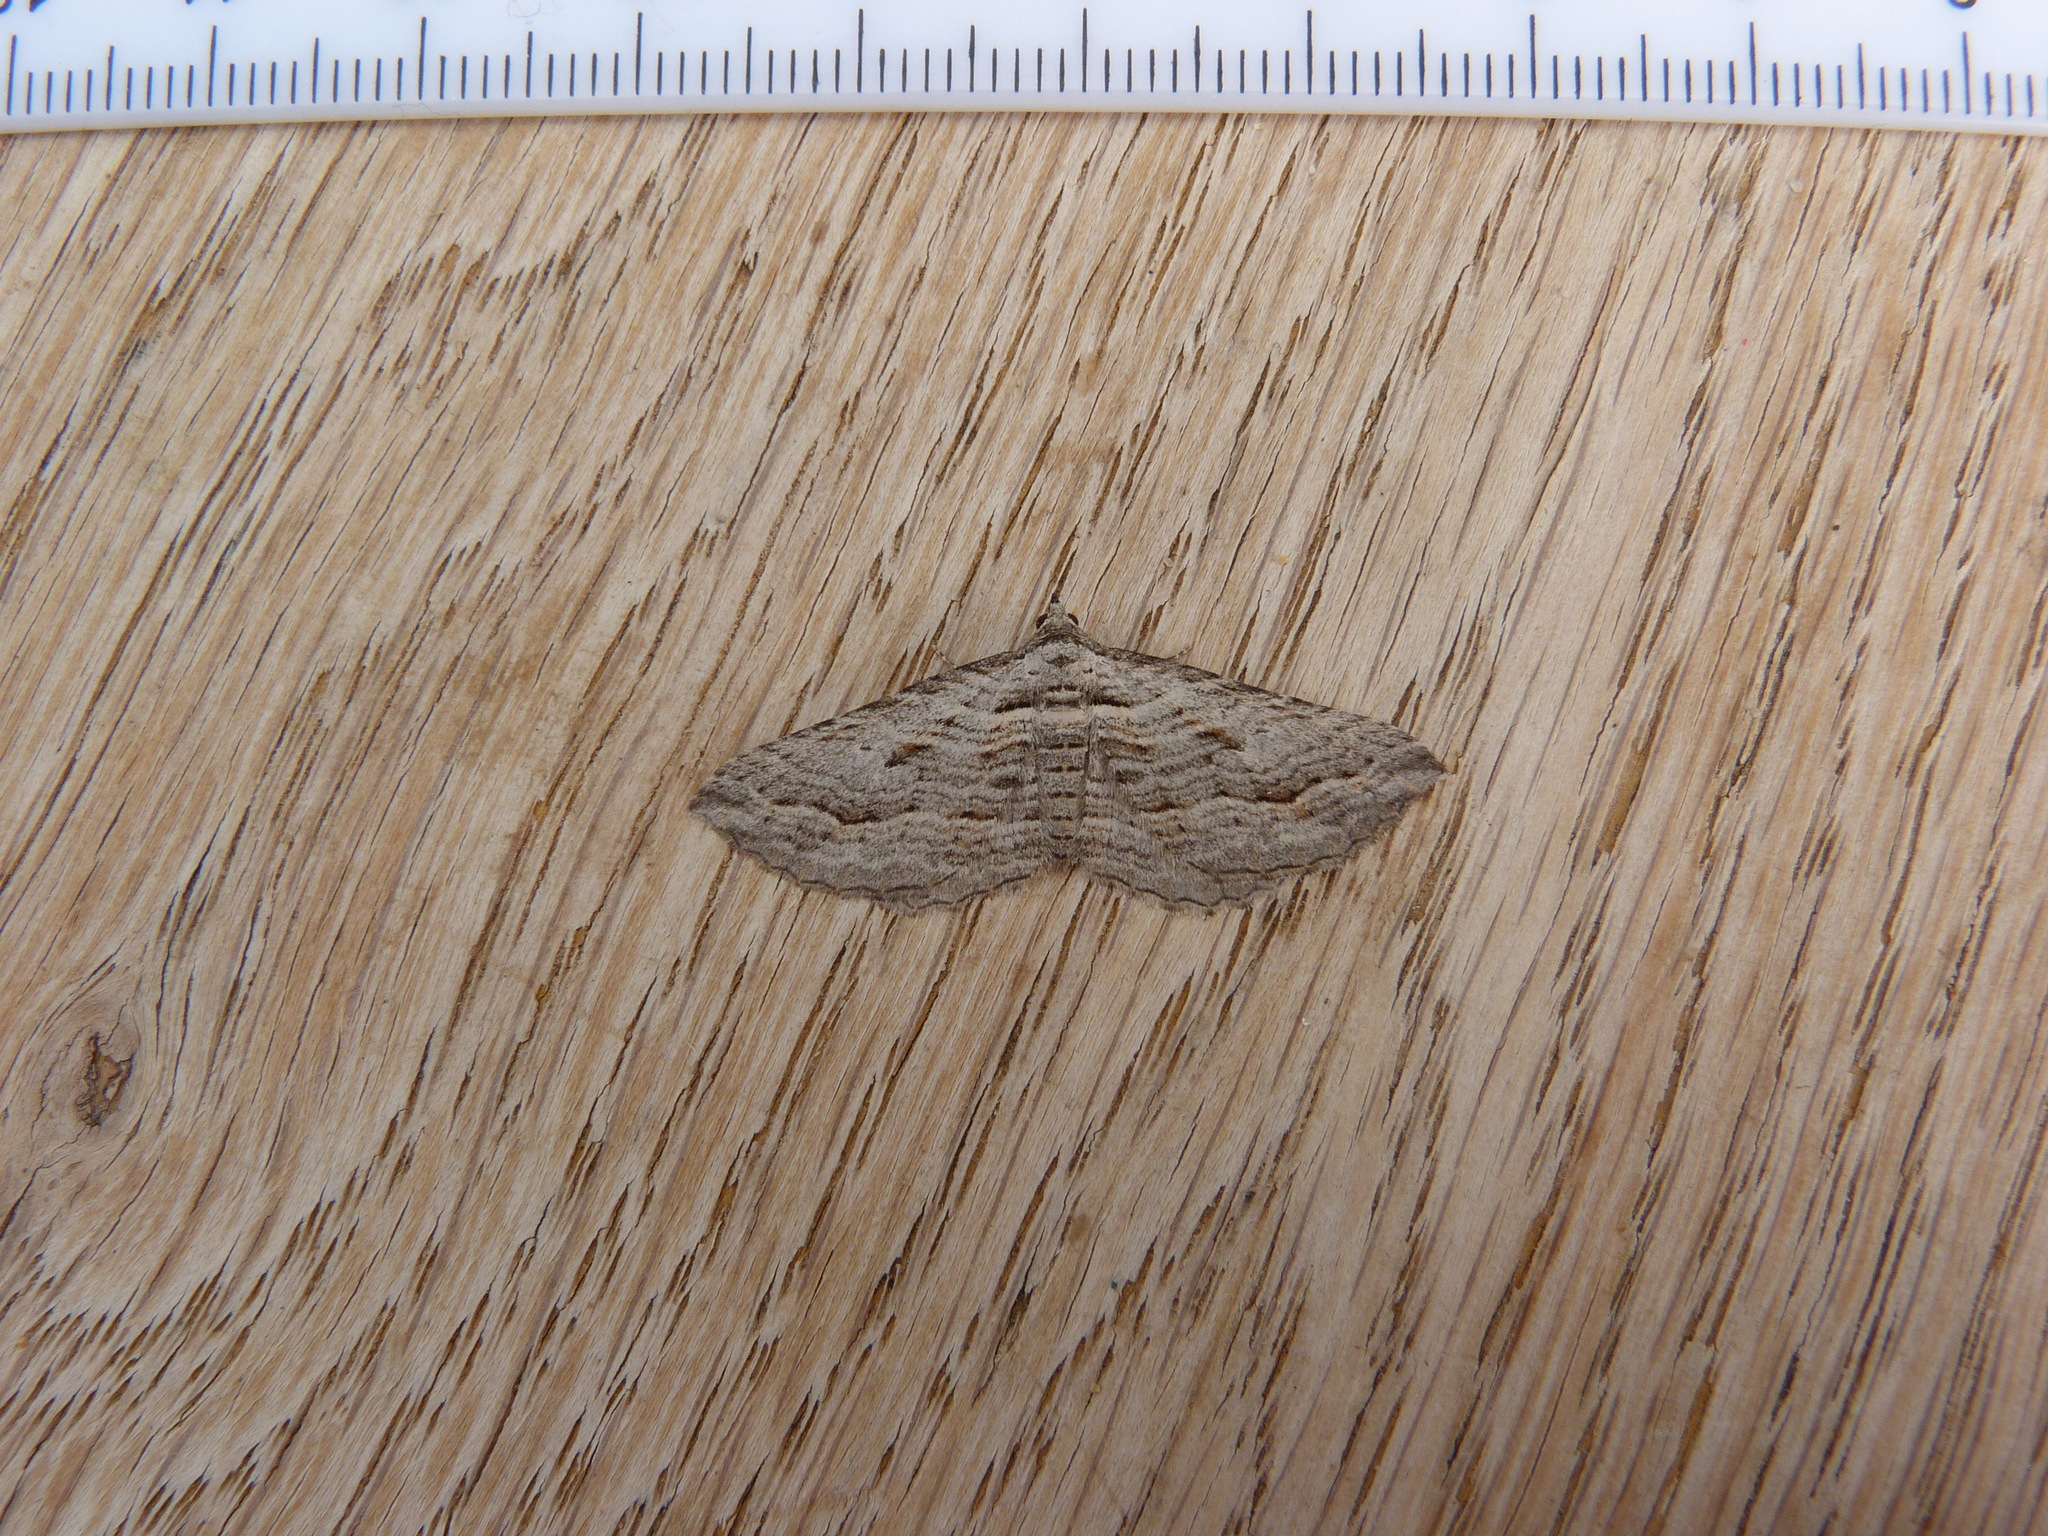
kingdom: Animalia
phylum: Arthropoda
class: Insecta
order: Lepidoptera
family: Geometridae
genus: Chrysolarentia
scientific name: Chrysolarentia severata
